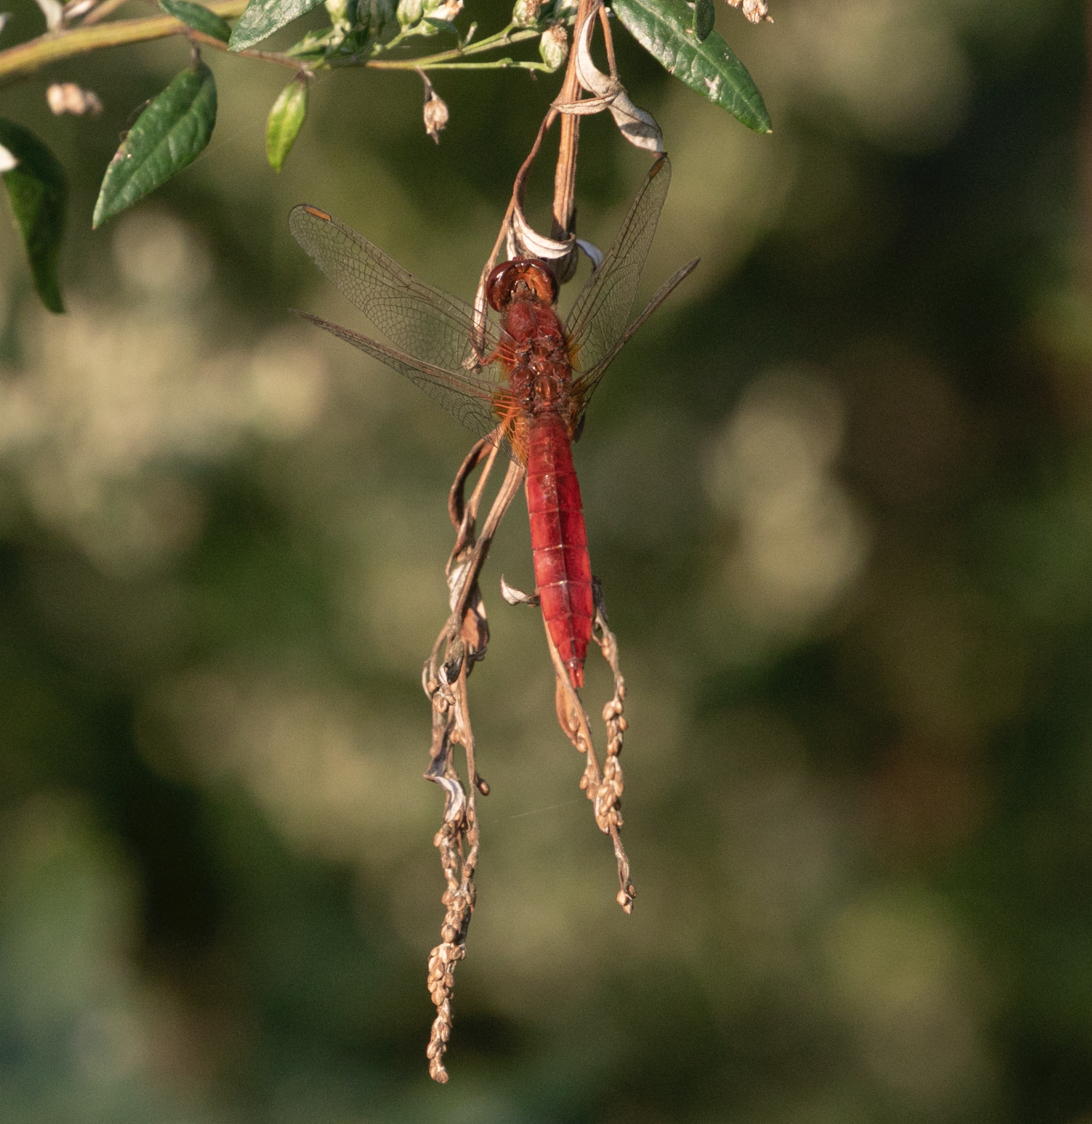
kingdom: Animalia
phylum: Arthropoda
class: Insecta
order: Odonata
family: Libellulidae
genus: Crocothemis
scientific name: Crocothemis erythraea
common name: Scarlet dragonfly
